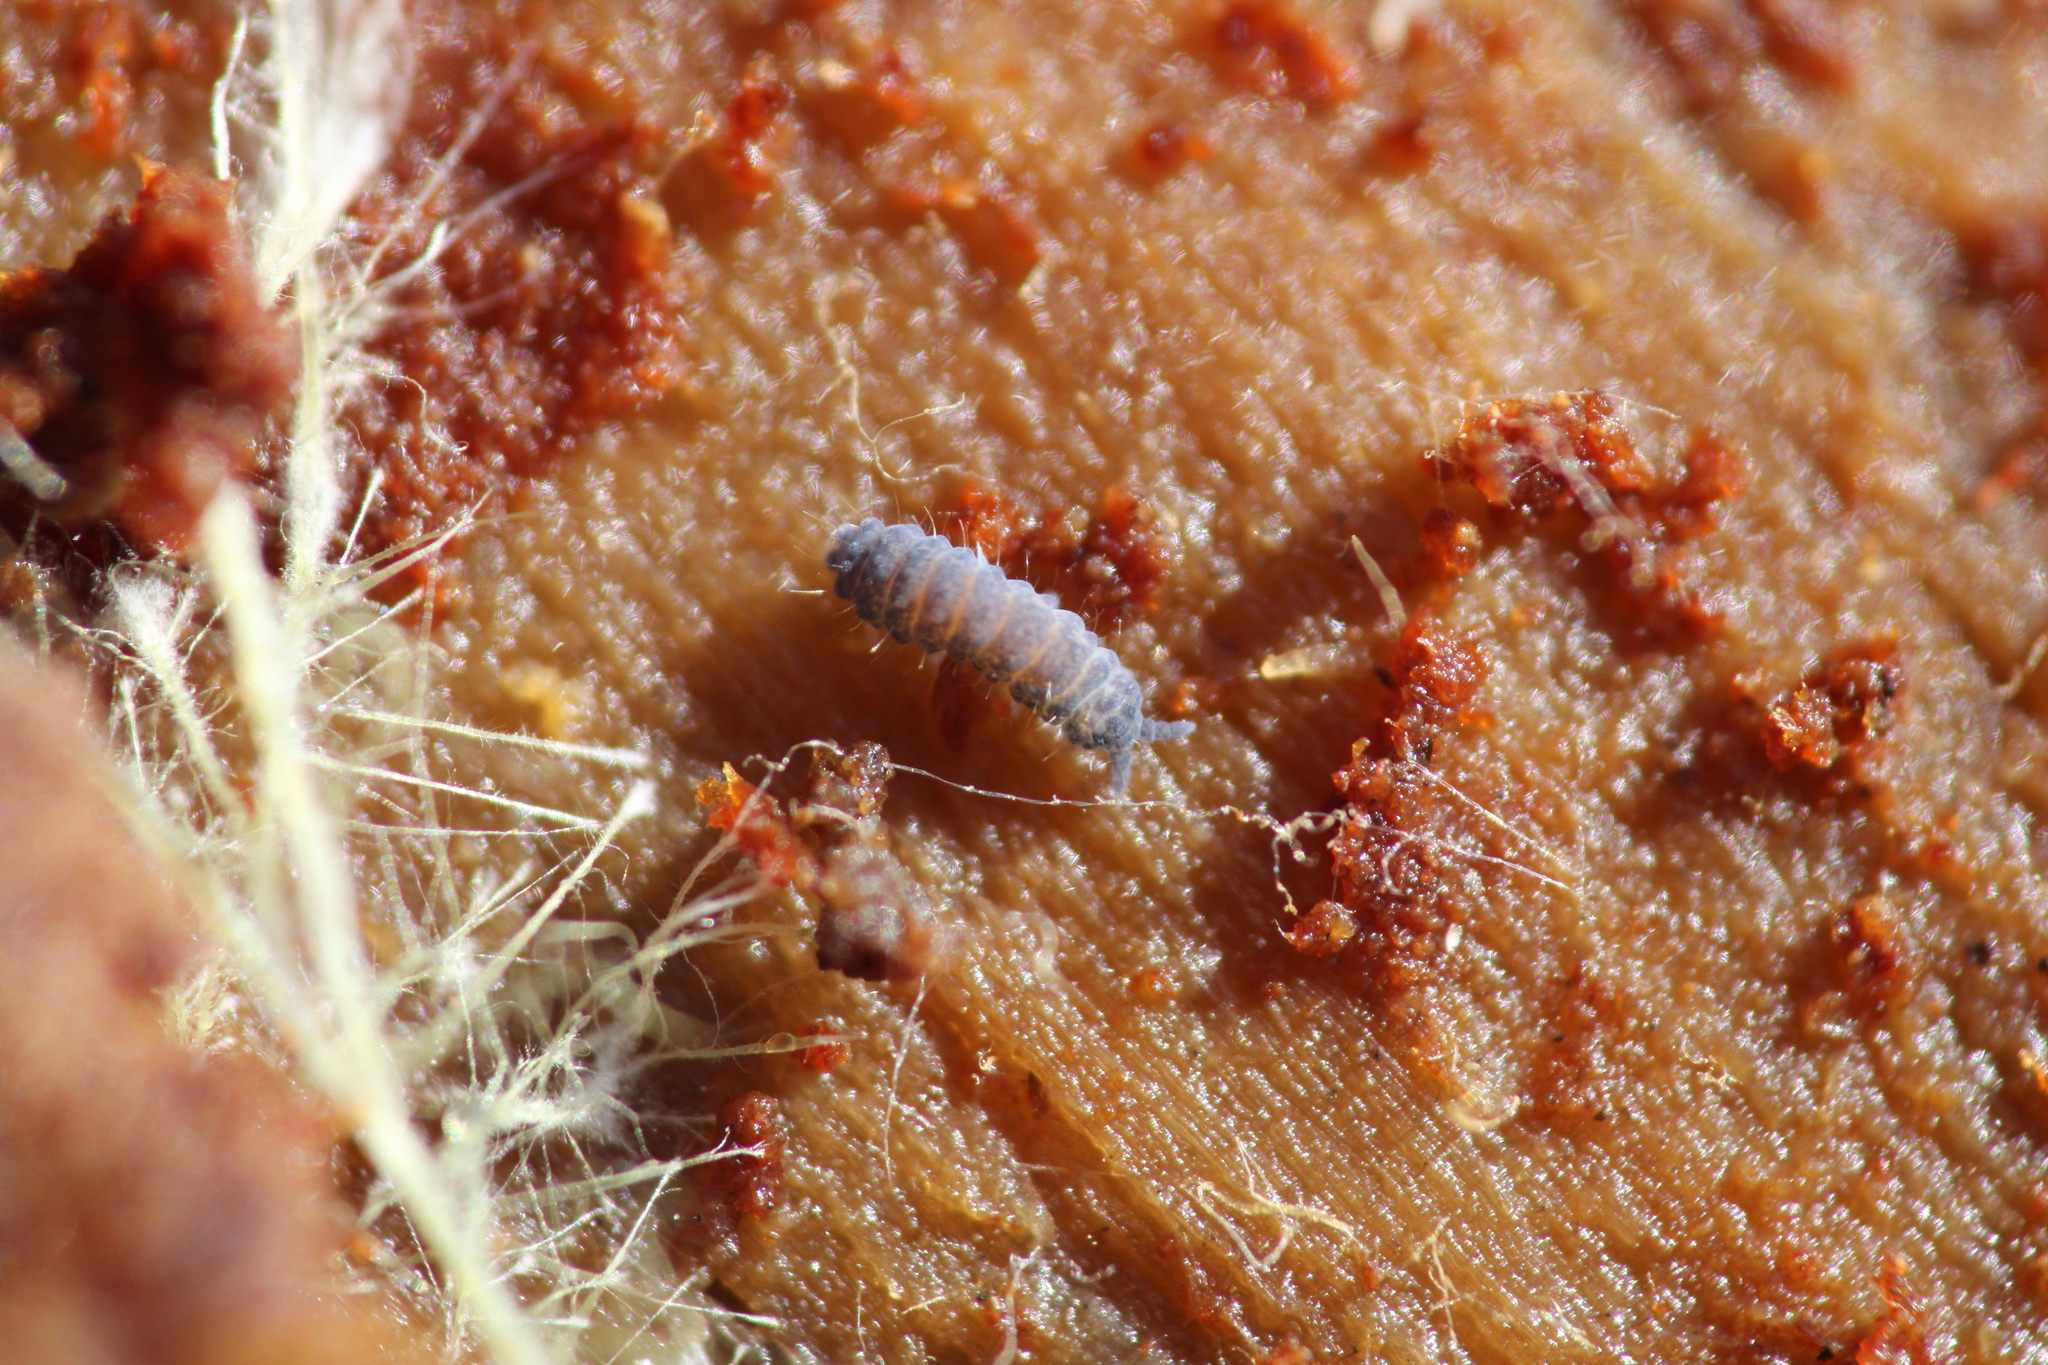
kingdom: Animalia
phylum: Arthropoda
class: Collembola
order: Poduromorpha
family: Neanuridae
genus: Neanura
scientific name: Neanura muscorum
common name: Springtail
